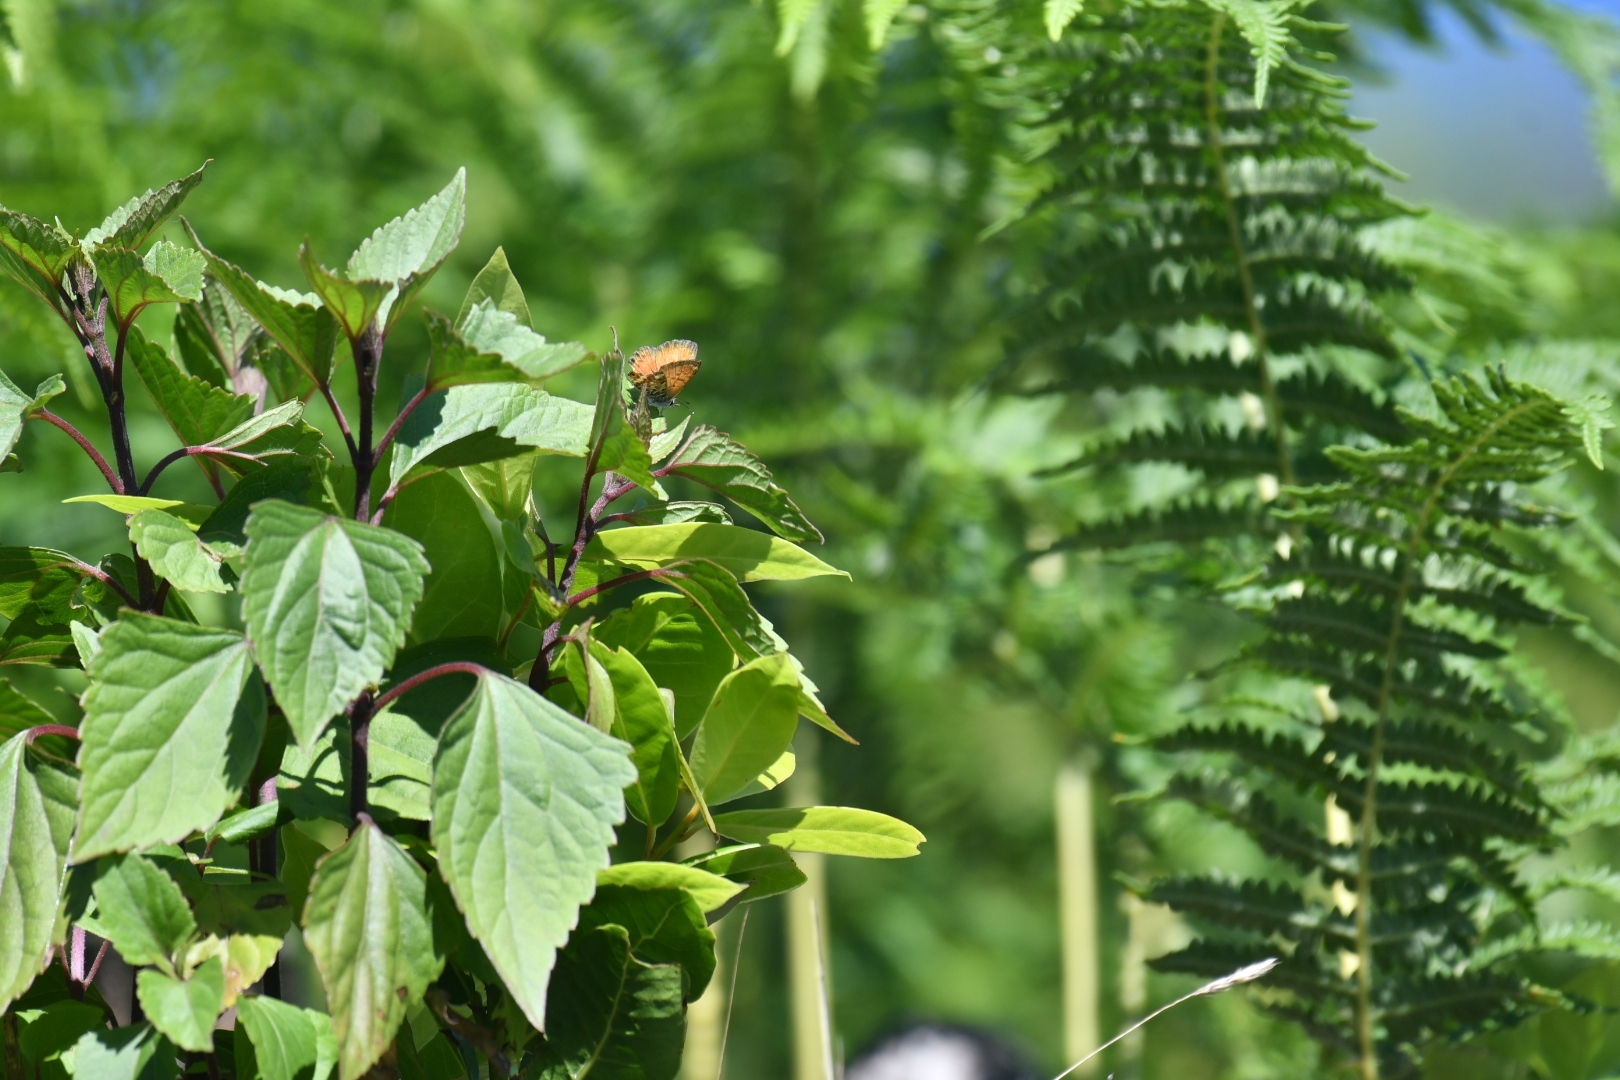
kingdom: Animalia
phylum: Arthropoda
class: Insecta
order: Lepidoptera
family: Lycaenidae
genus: Cyclyrius
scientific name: Cyclyrius webbianus
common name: Canary blue
